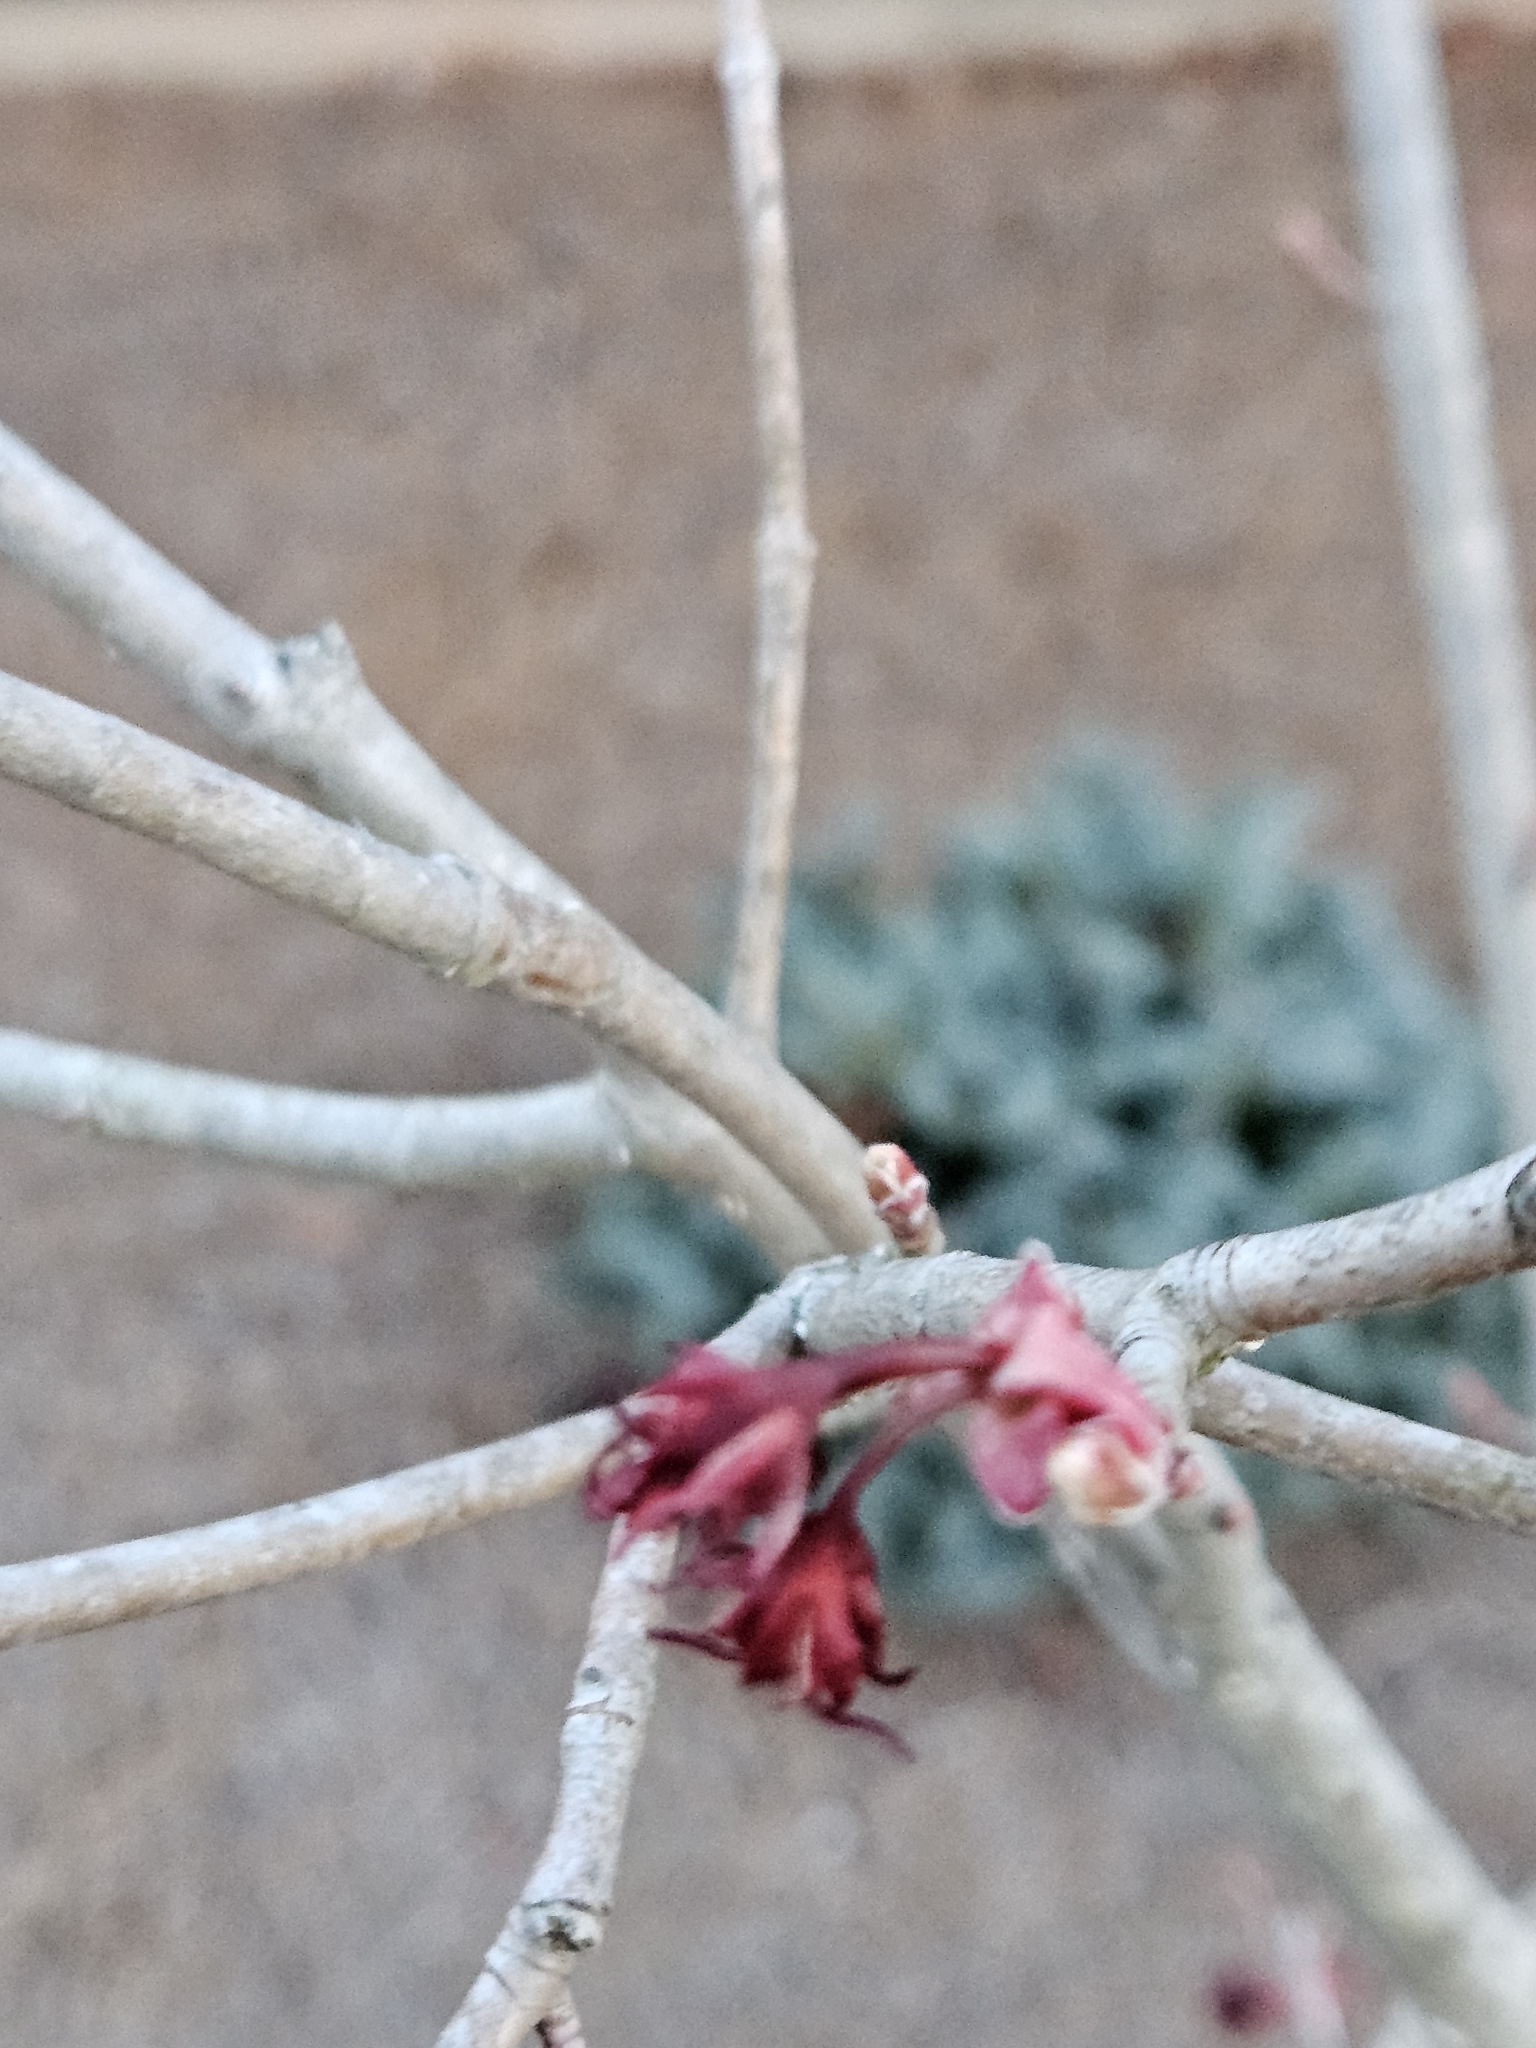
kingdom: Plantae
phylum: Tracheophyta
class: Magnoliopsida
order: Sapindales
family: Sapindaceae
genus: Acer
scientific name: Acer rubrum
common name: Red maple
